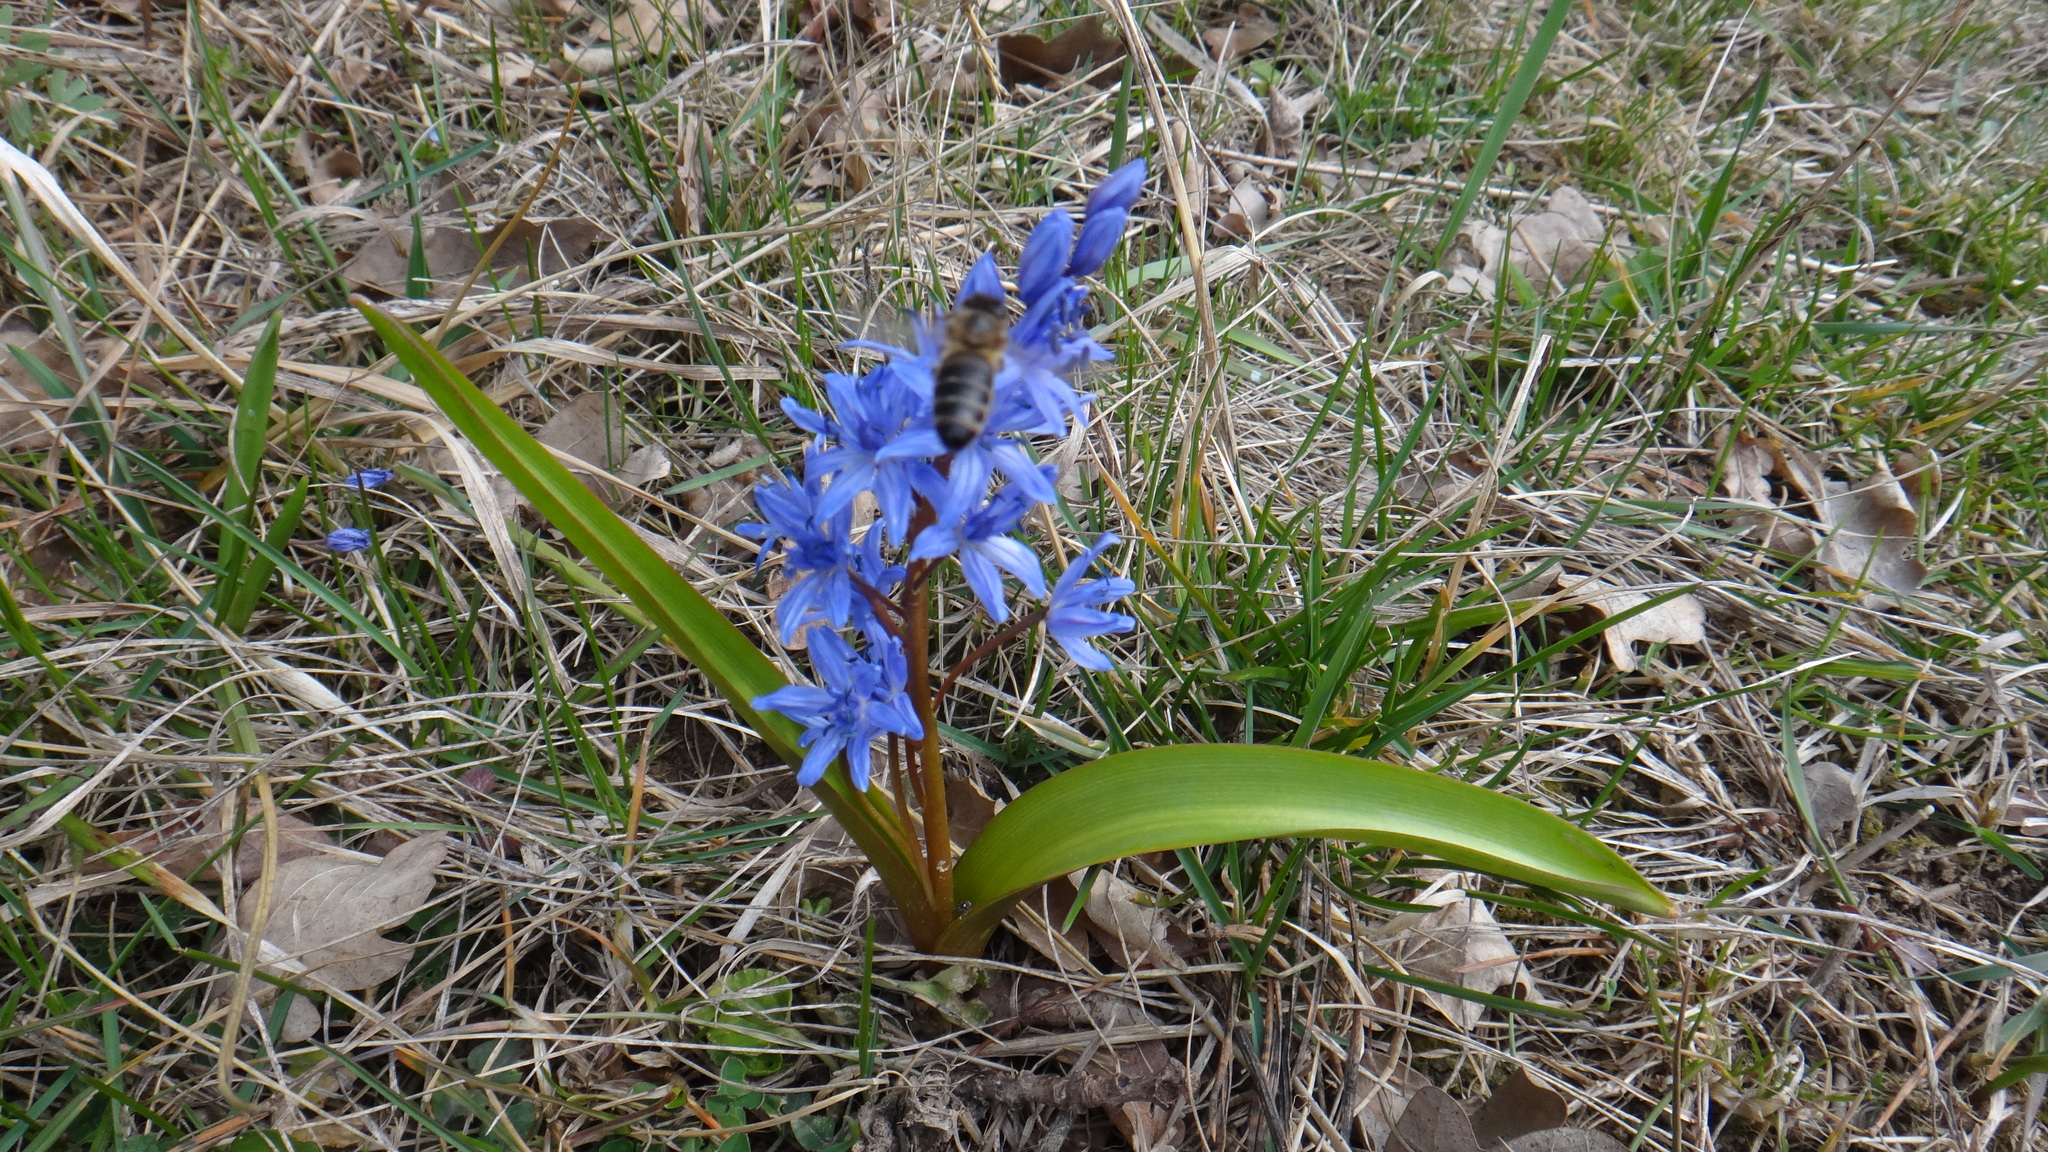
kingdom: Plantae
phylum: Tracheophyta
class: Liliopsida
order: Asparagales
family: Asparagaceae
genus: Scilla
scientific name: Scilla bifolia
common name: Alpine squill
